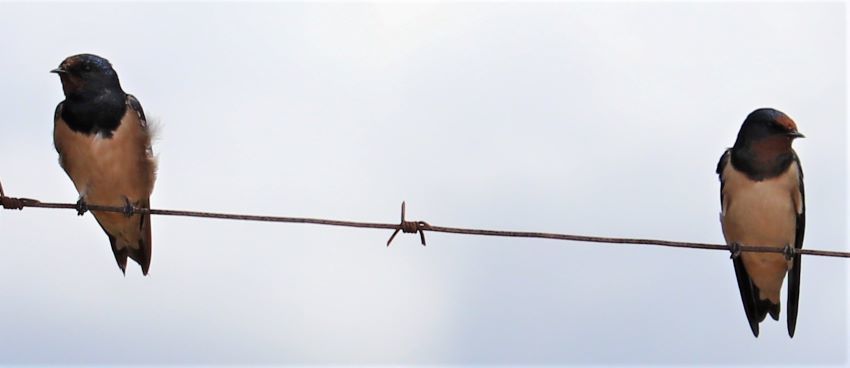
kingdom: Animalia
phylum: Chordata
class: Aves
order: Passeriformes
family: Hirundinidae
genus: Hirundo
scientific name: Hirundo rustica
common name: Barn swallow
